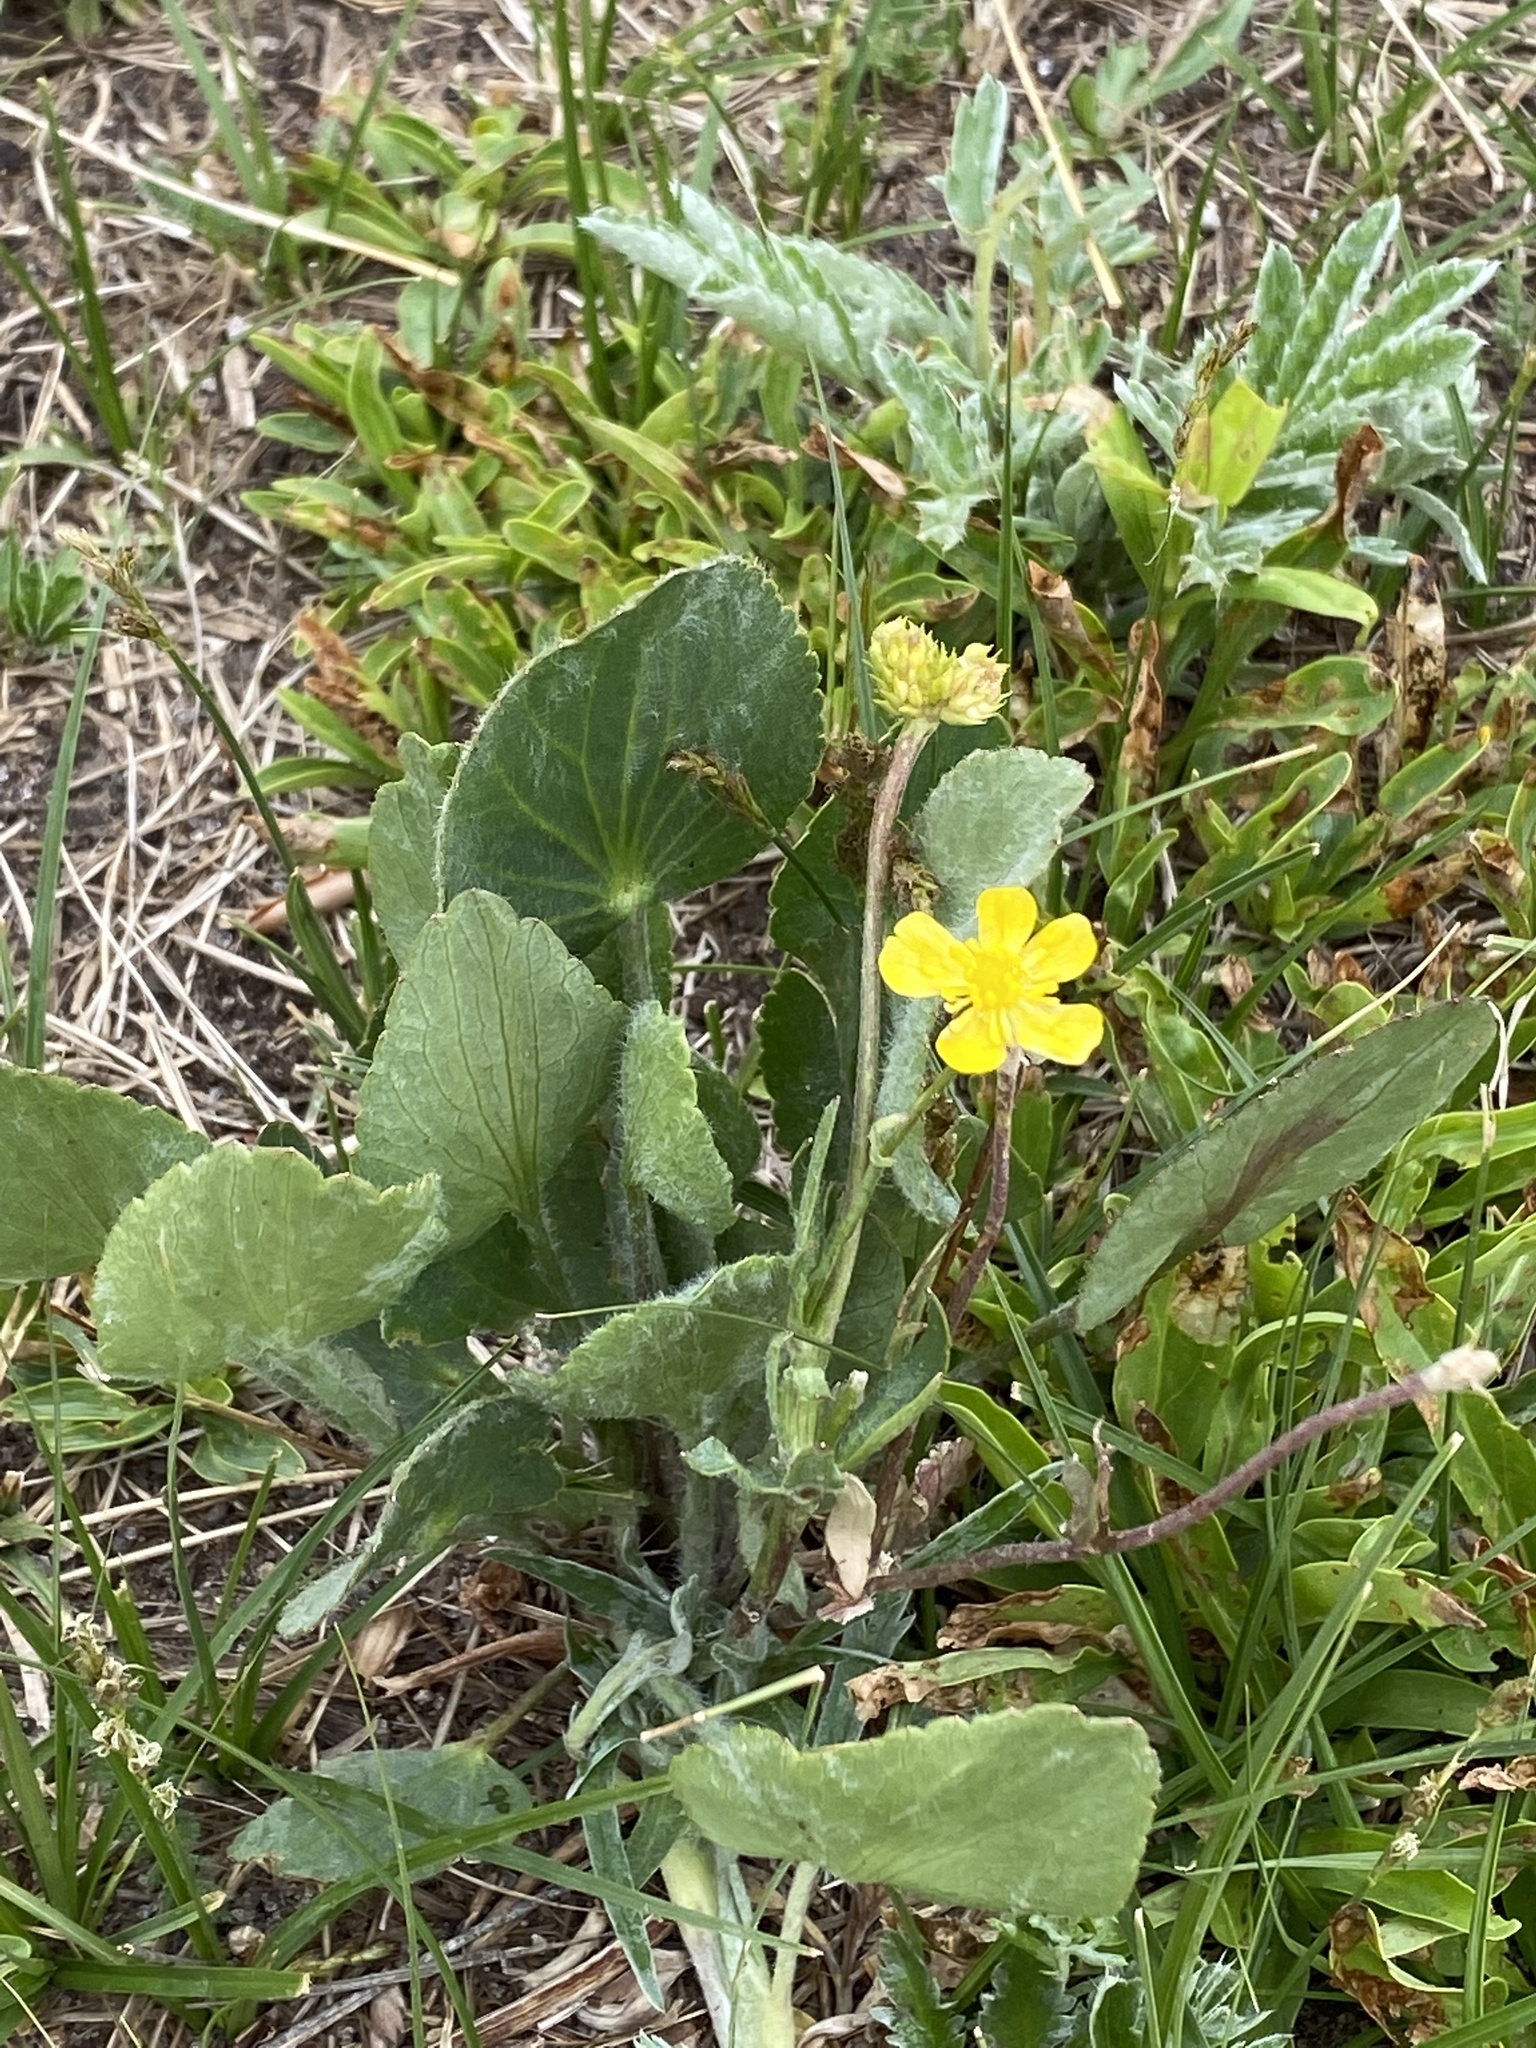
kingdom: Plantae
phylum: Tracheophyta
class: Magnoliopsida
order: Ranunculales
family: Ranunculaceae
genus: Ranunculus
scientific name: Ranunculus cardiophyllus
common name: Heart-leaved buttercup
